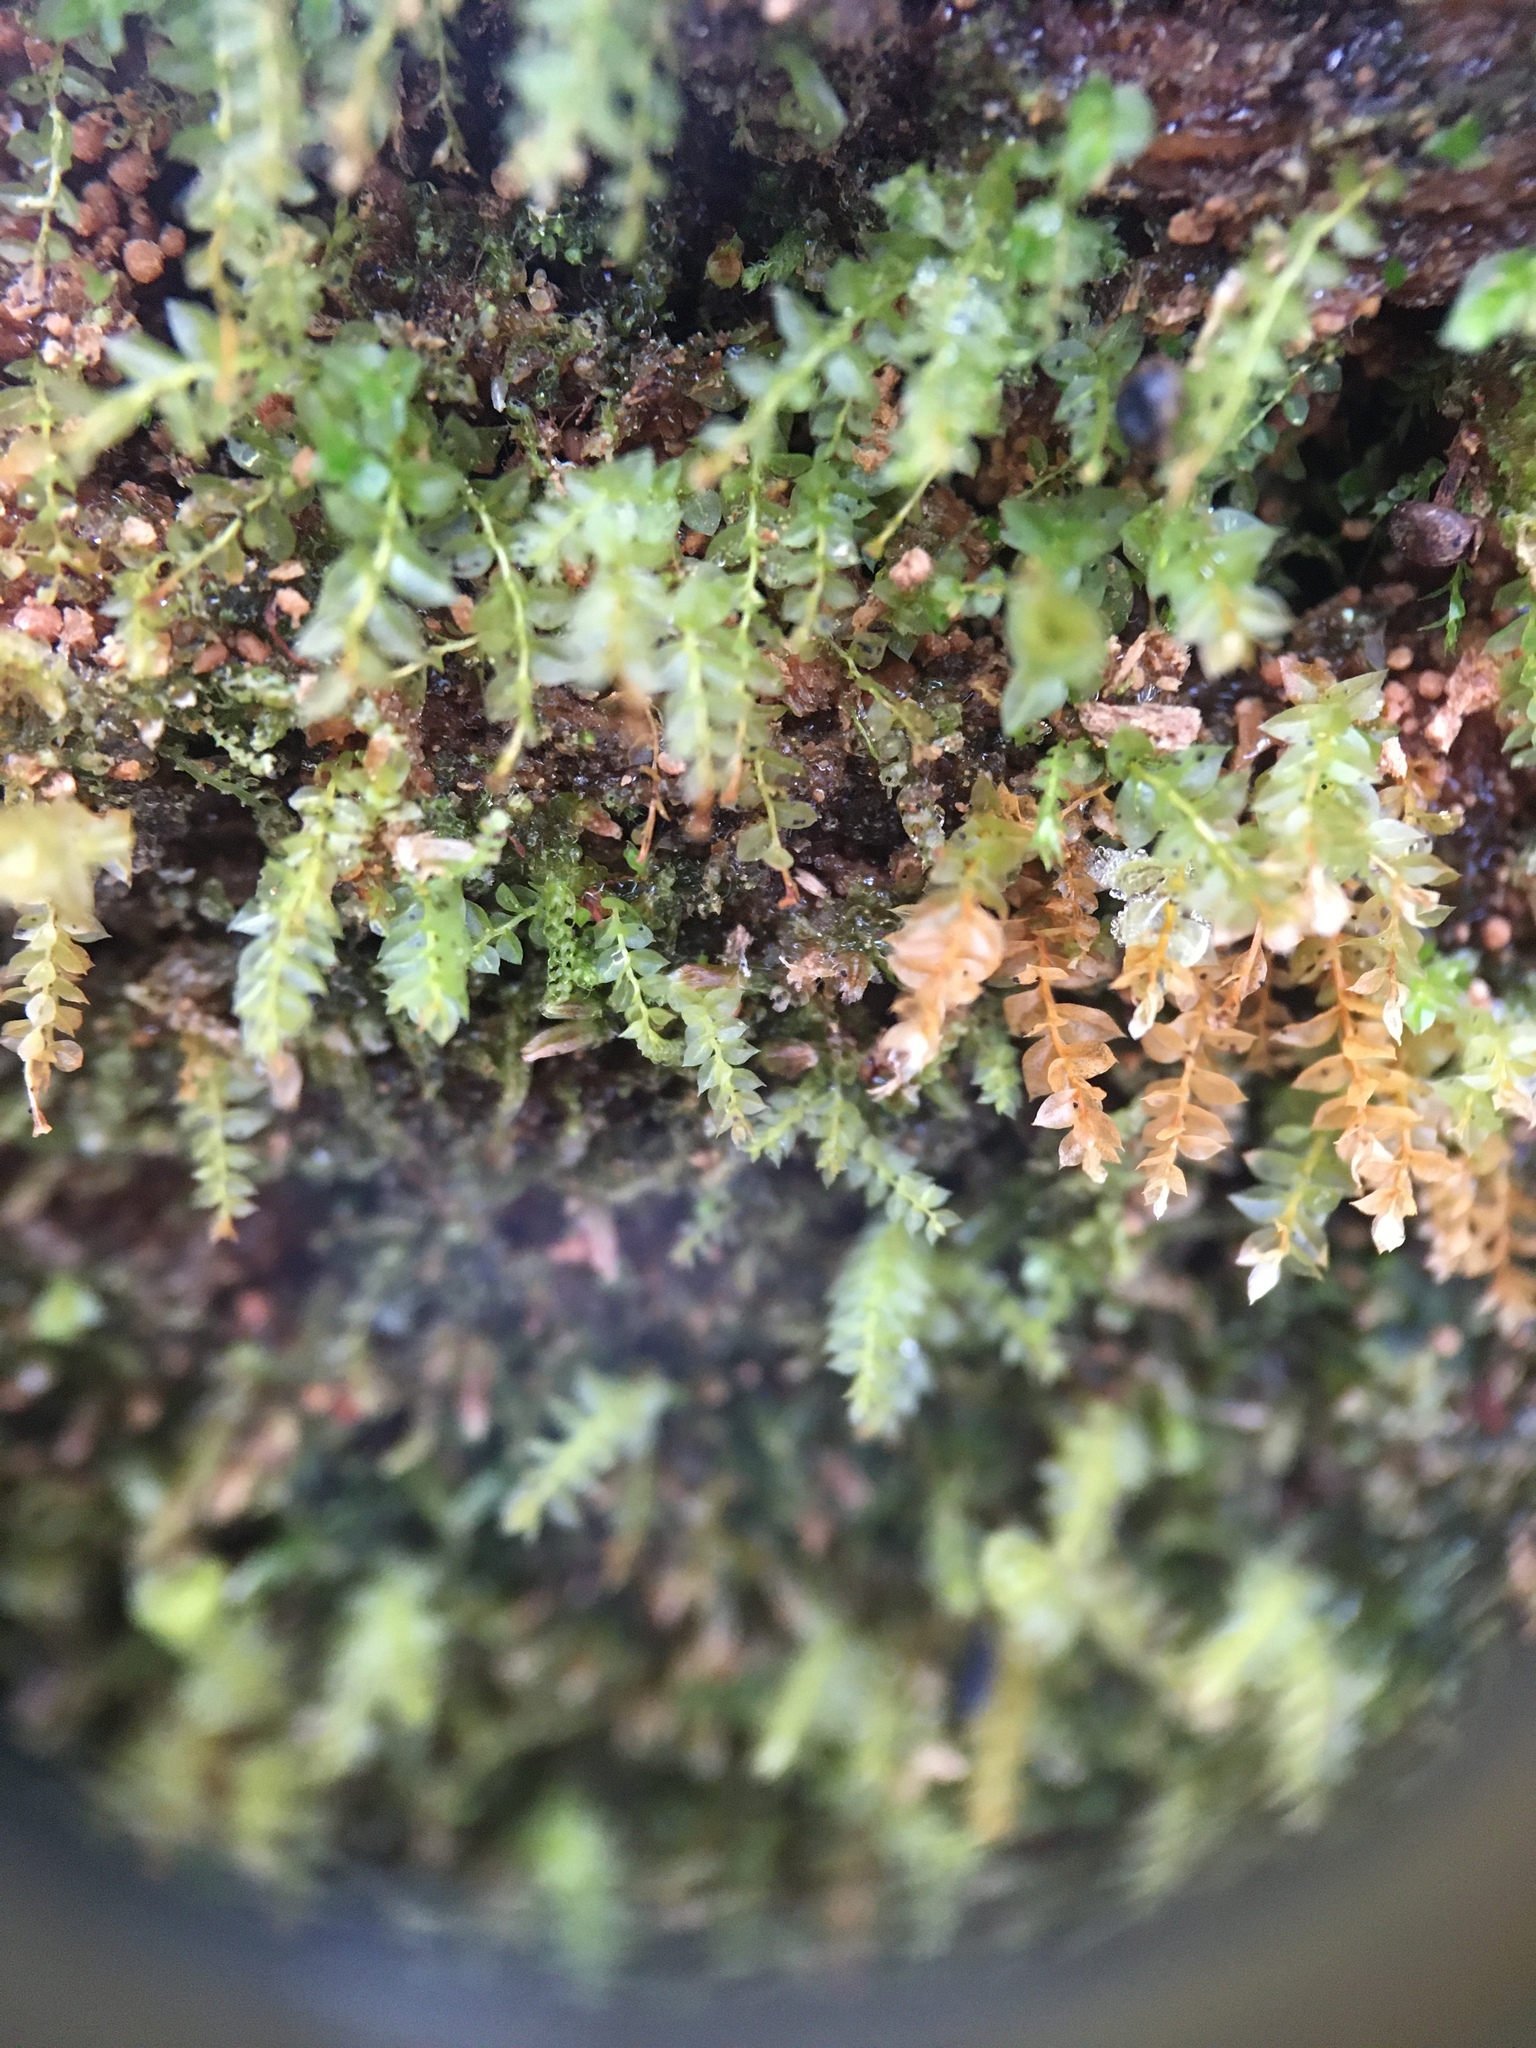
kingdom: Plantae
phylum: Bryophyta
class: Bryopsida
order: Bryales
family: Mniaceae
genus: Plagiomnium
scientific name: Plagiomnium cuspidatum
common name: Woodsy leafy moss
